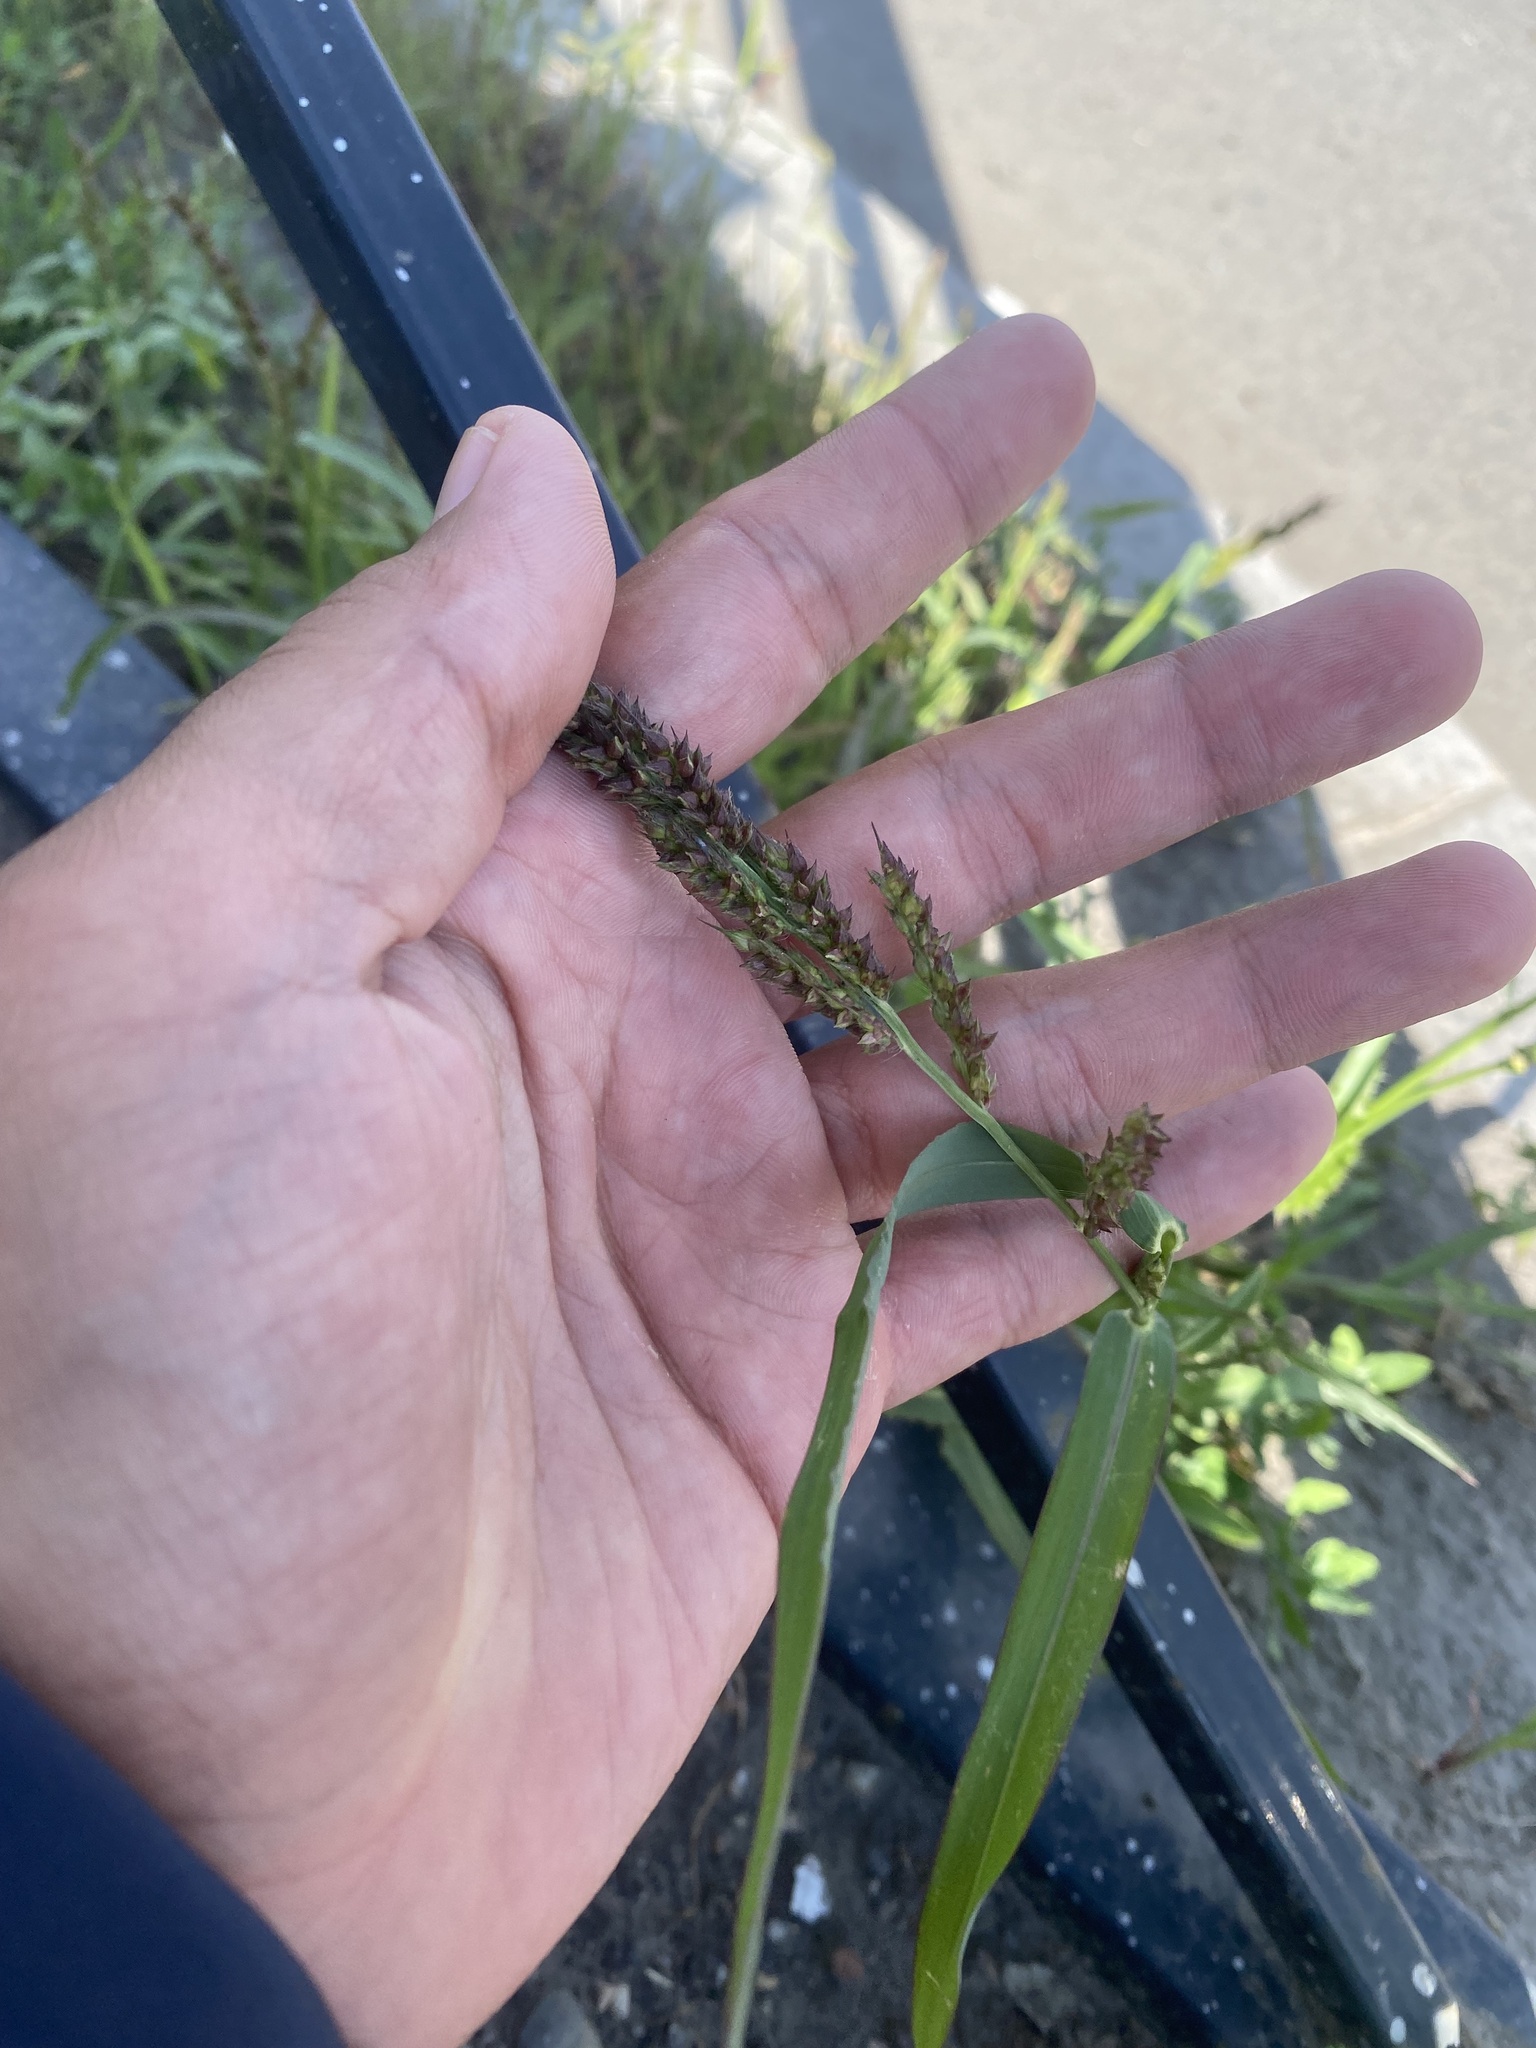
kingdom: Plantae
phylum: Tracheophyta
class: Liliopsida
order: Poales
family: Poaceae
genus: Echinochloa
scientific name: Echinochloa crus-galli
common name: Cockspur
